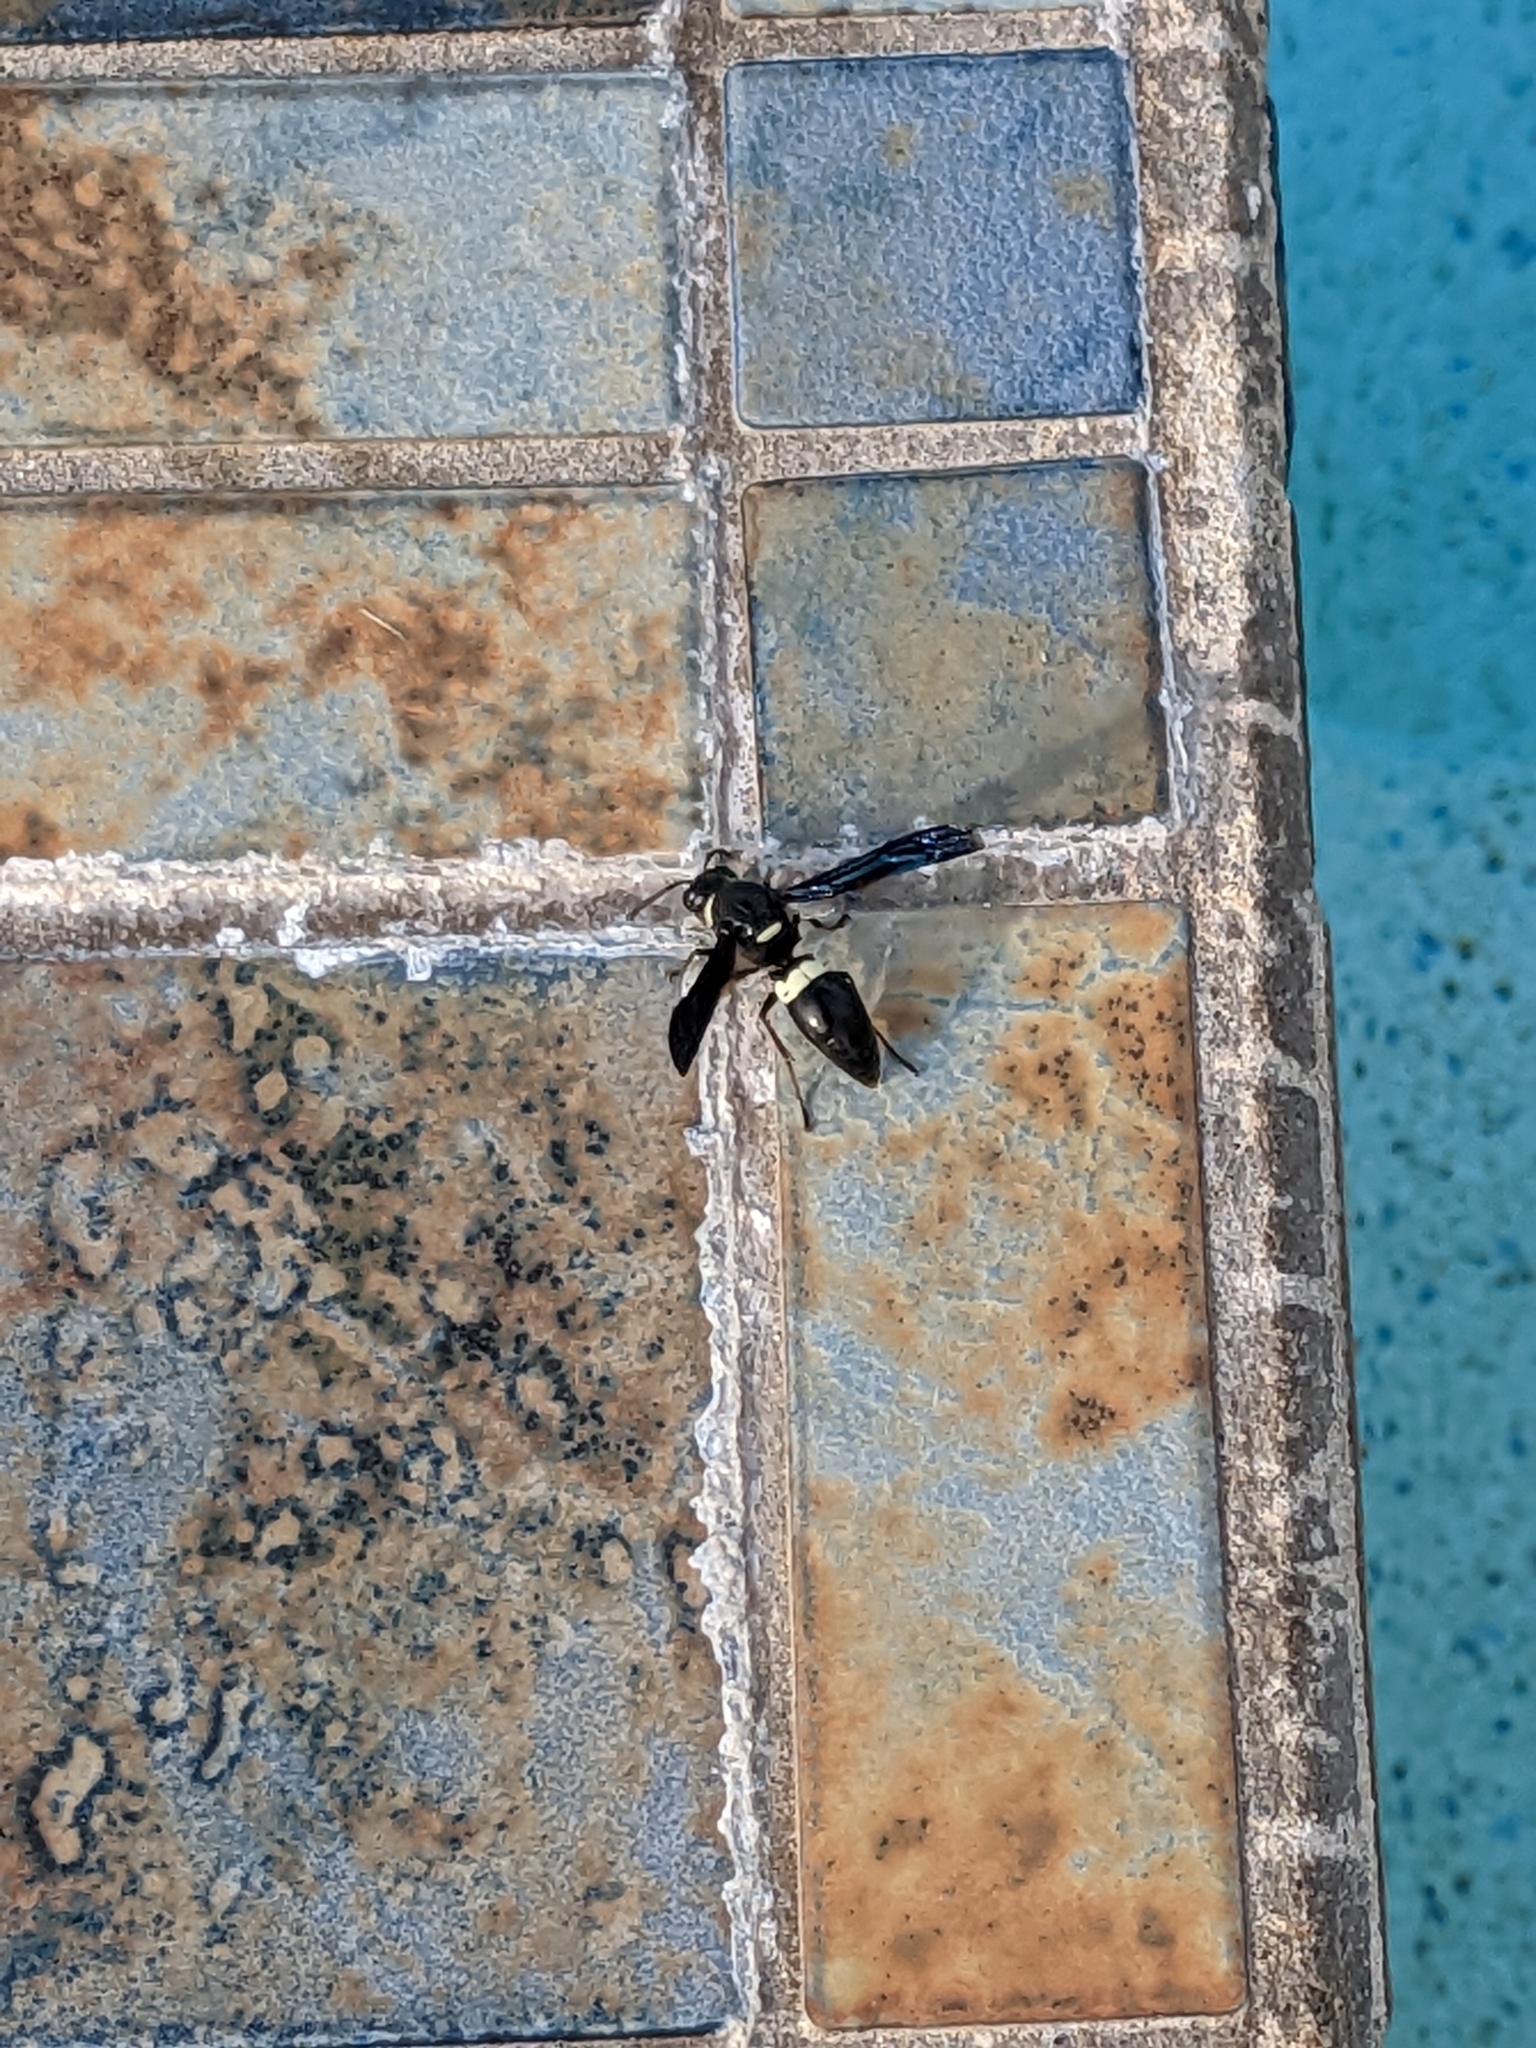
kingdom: Animalia
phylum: Arthropoda
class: Insecta
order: Hymenoptera
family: Eumenidae
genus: Monobia
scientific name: Monobia quadridens
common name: Four-toothed mason wasp
